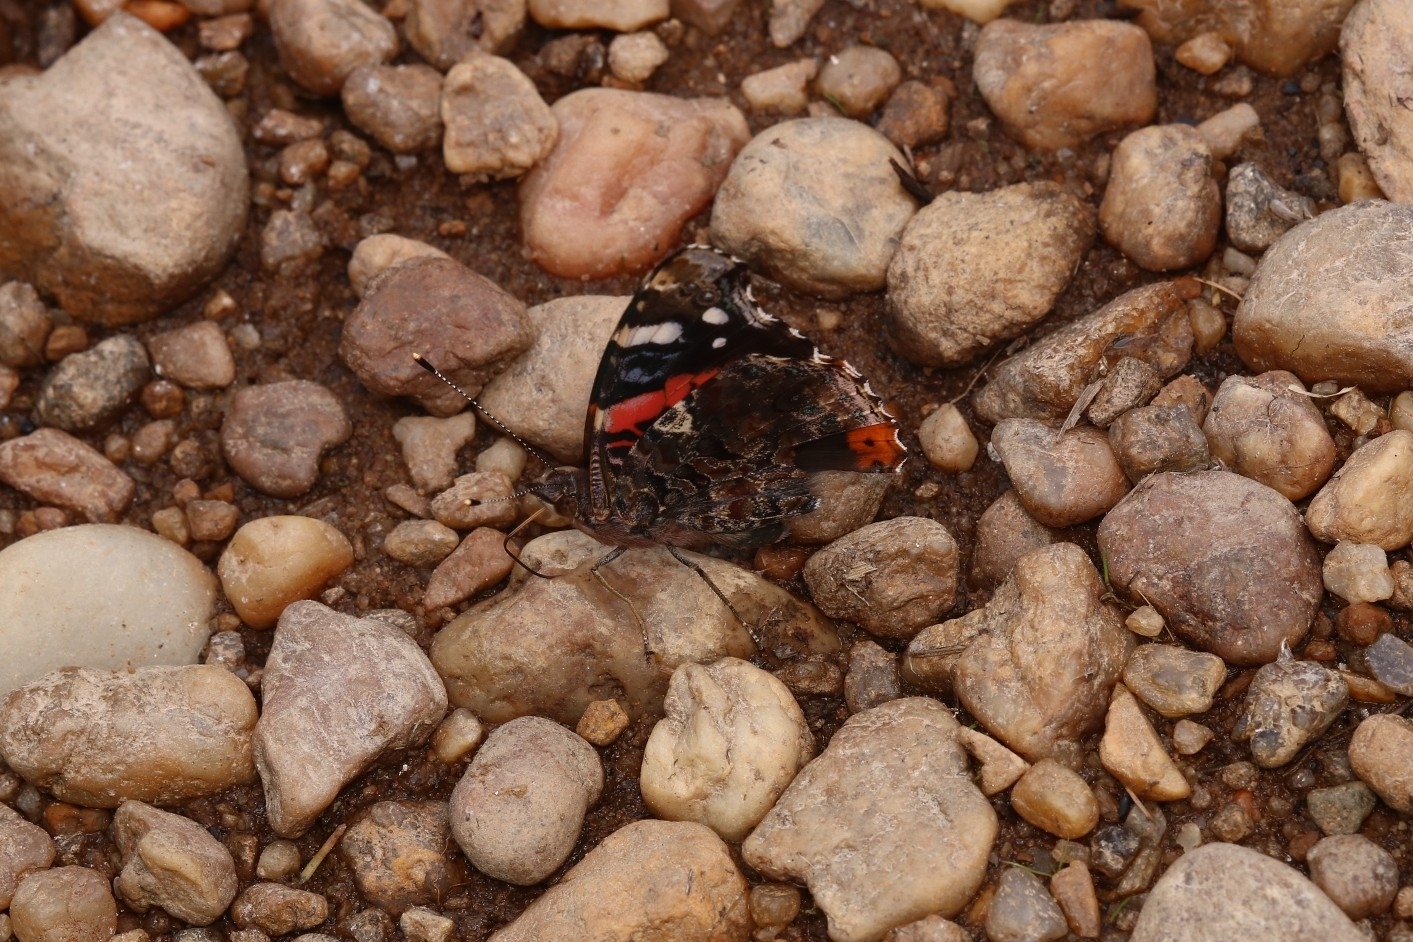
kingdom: Animalia
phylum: Arthropoda
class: Insecta
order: Lepidoptera
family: Nymphalidae
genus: Vanessa
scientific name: Vanessa atalanta
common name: Red admiral
